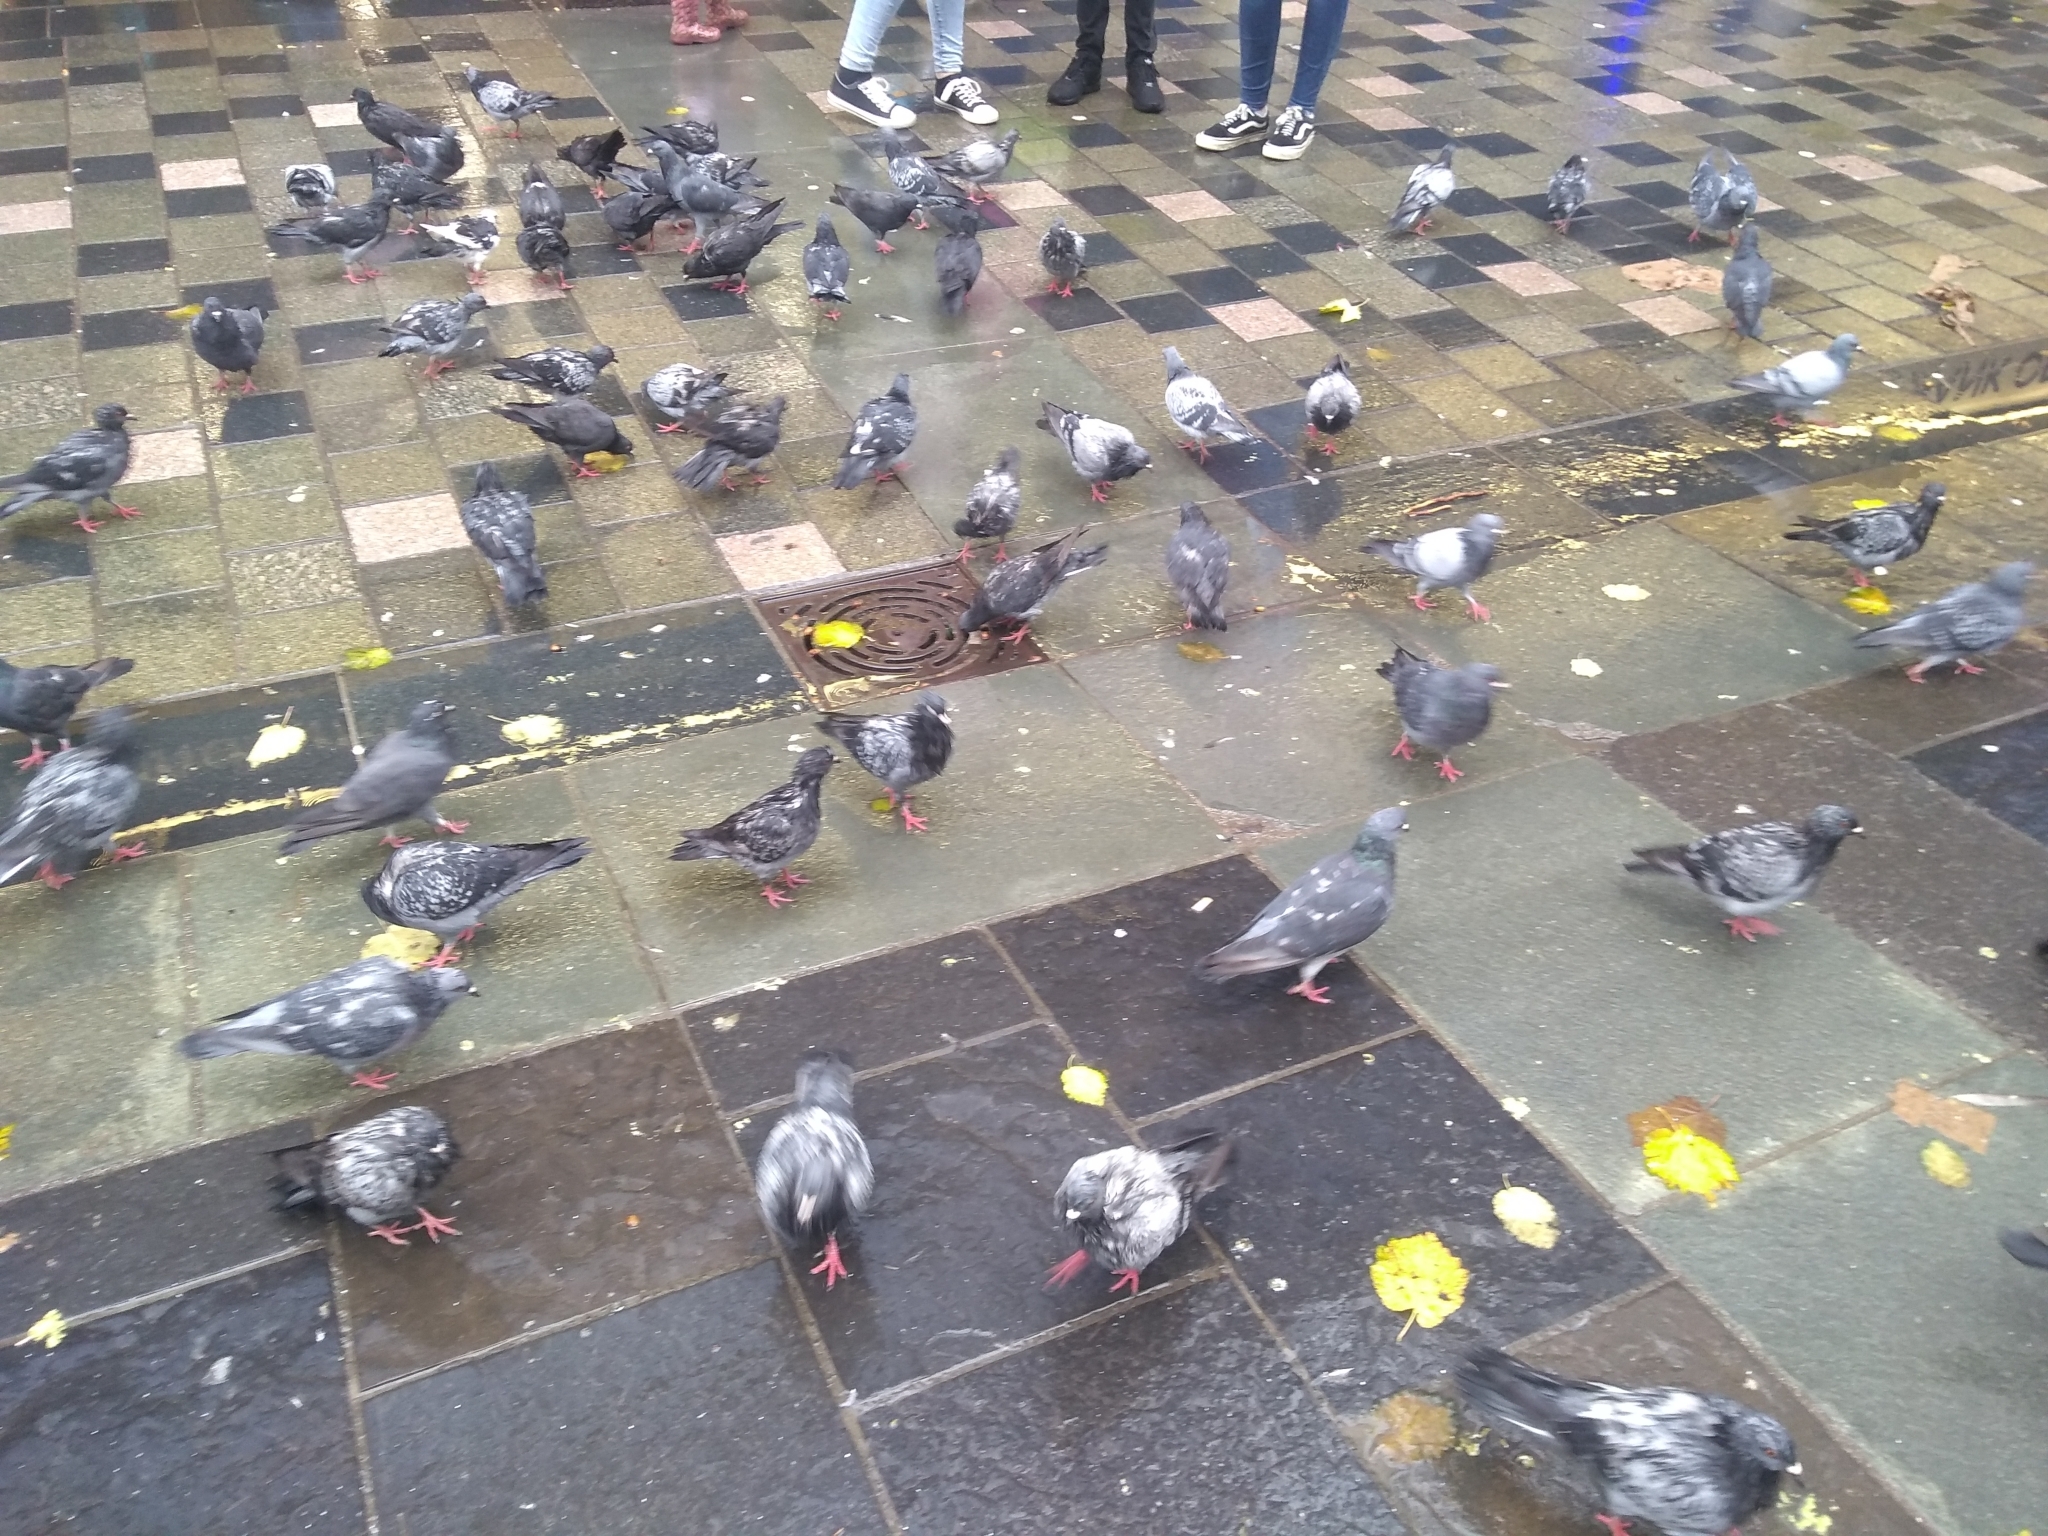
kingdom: Animalia
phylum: Chordata
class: Aves
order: Columbiformes
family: Columbidae
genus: Columba
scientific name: Columba livia
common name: Rock pigeon
